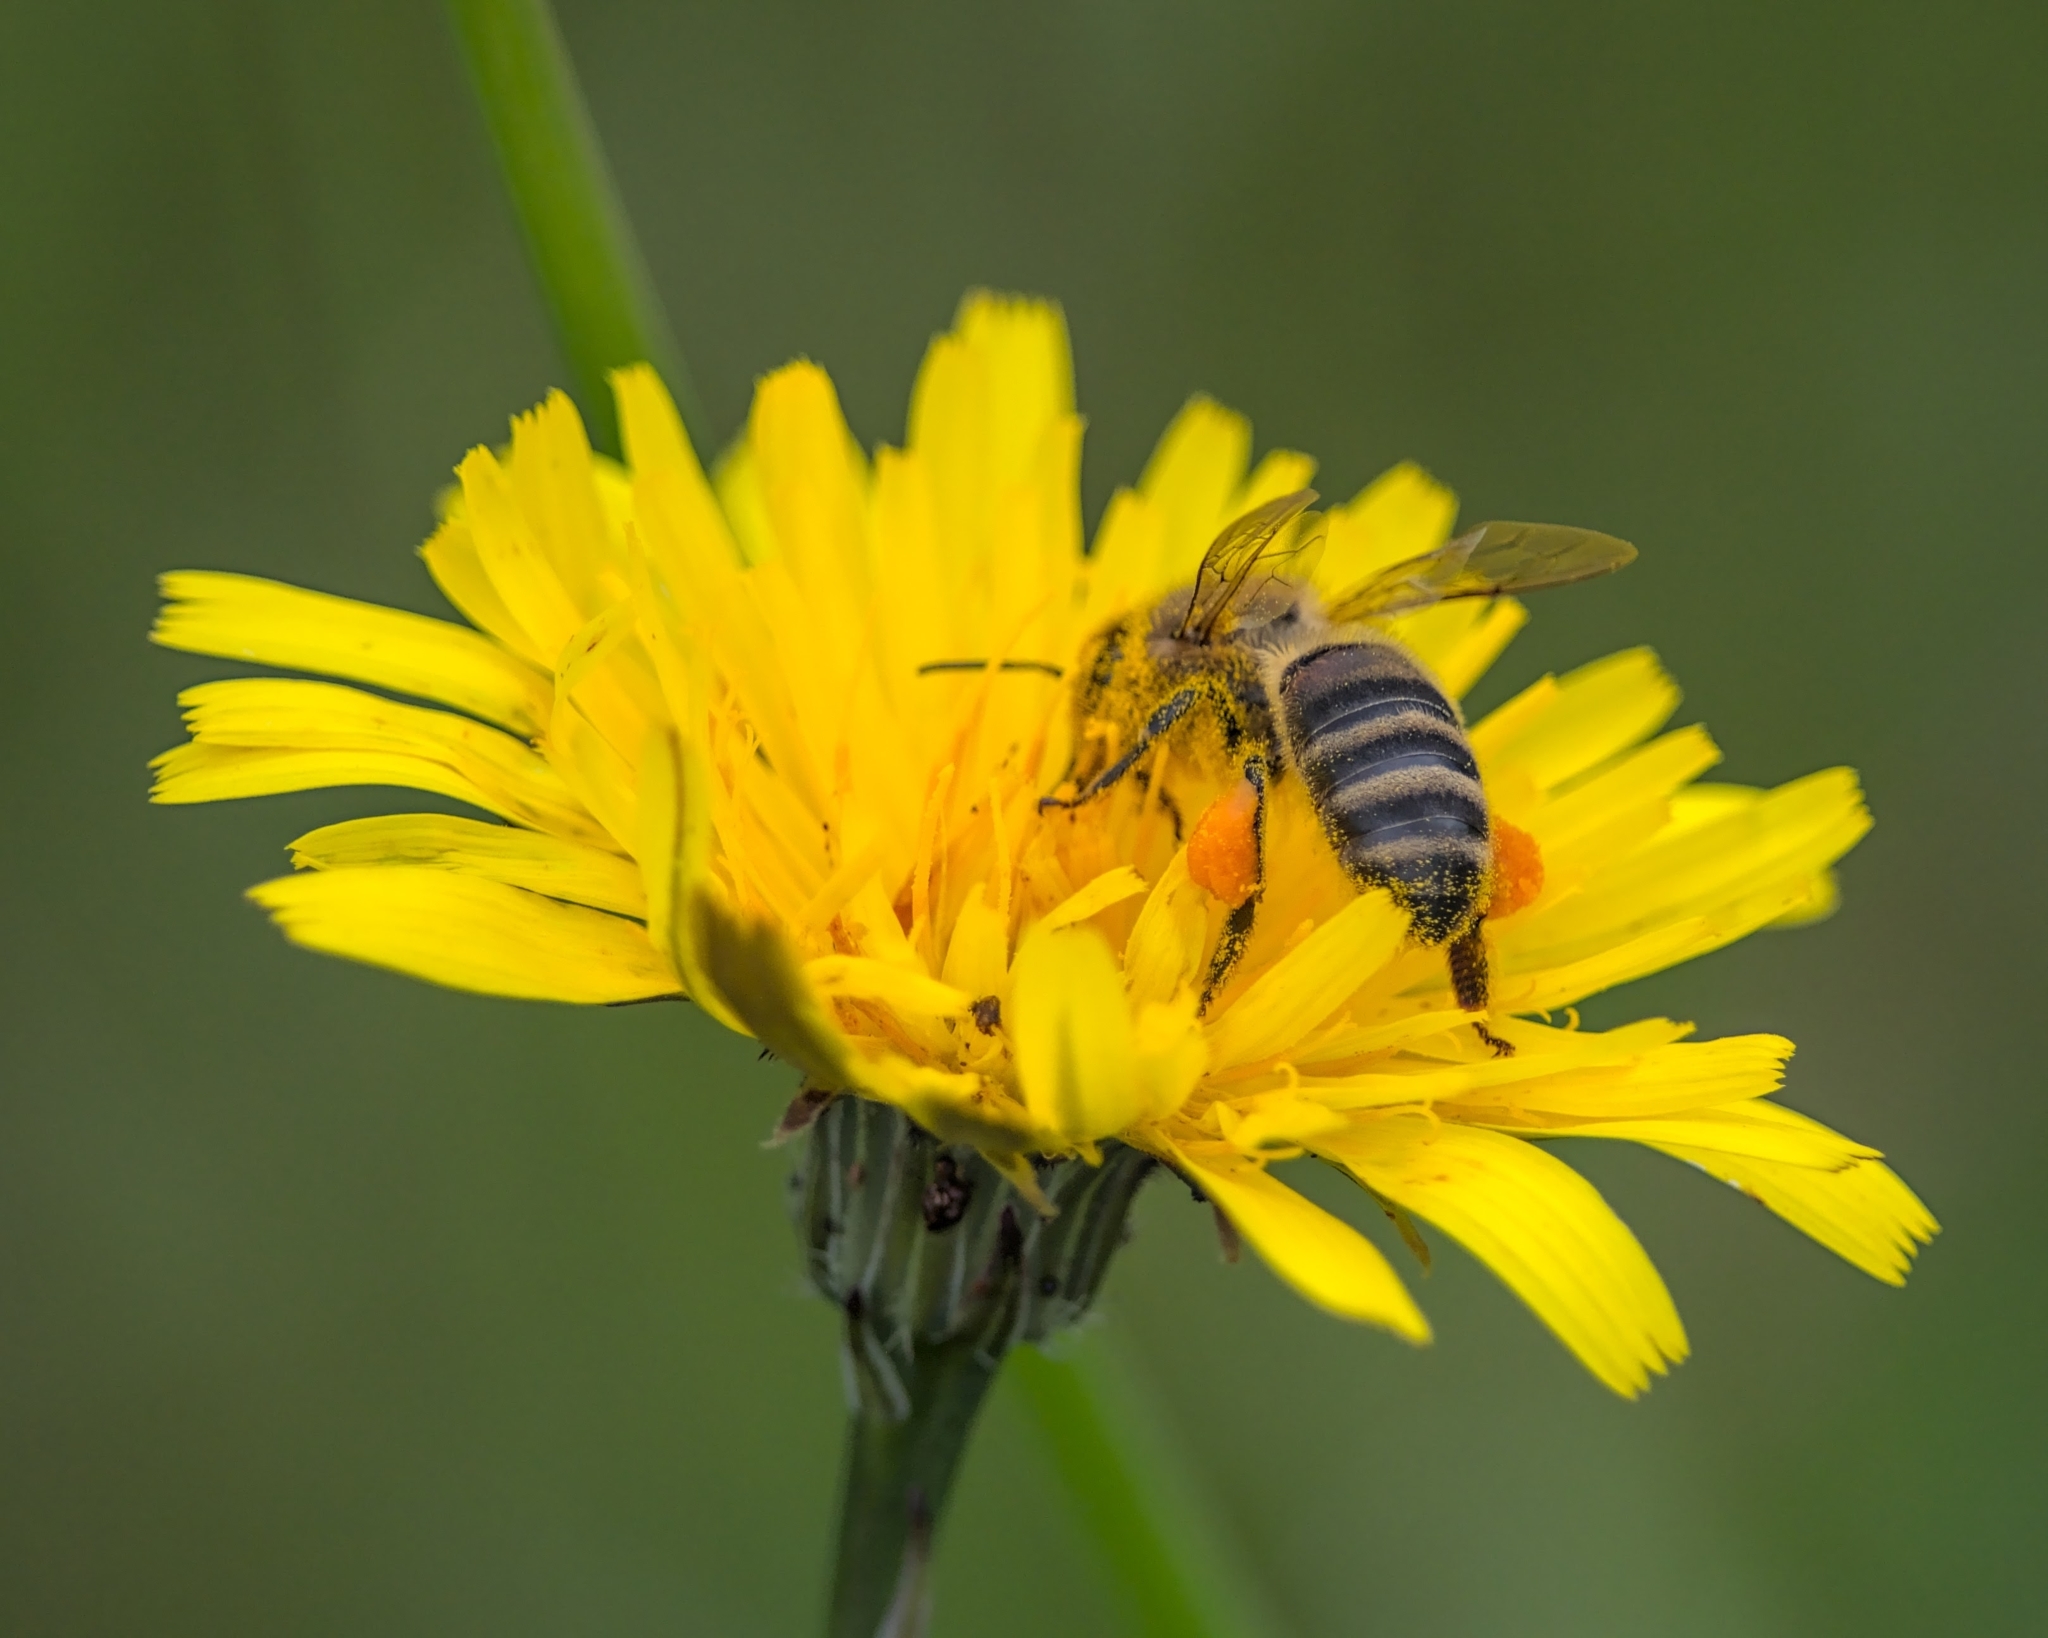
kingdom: Animalia
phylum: Arthropoda
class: Insecta
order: Hymenoptera
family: Apidae
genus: Apis
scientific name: Apis mellifera
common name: Honey bee
